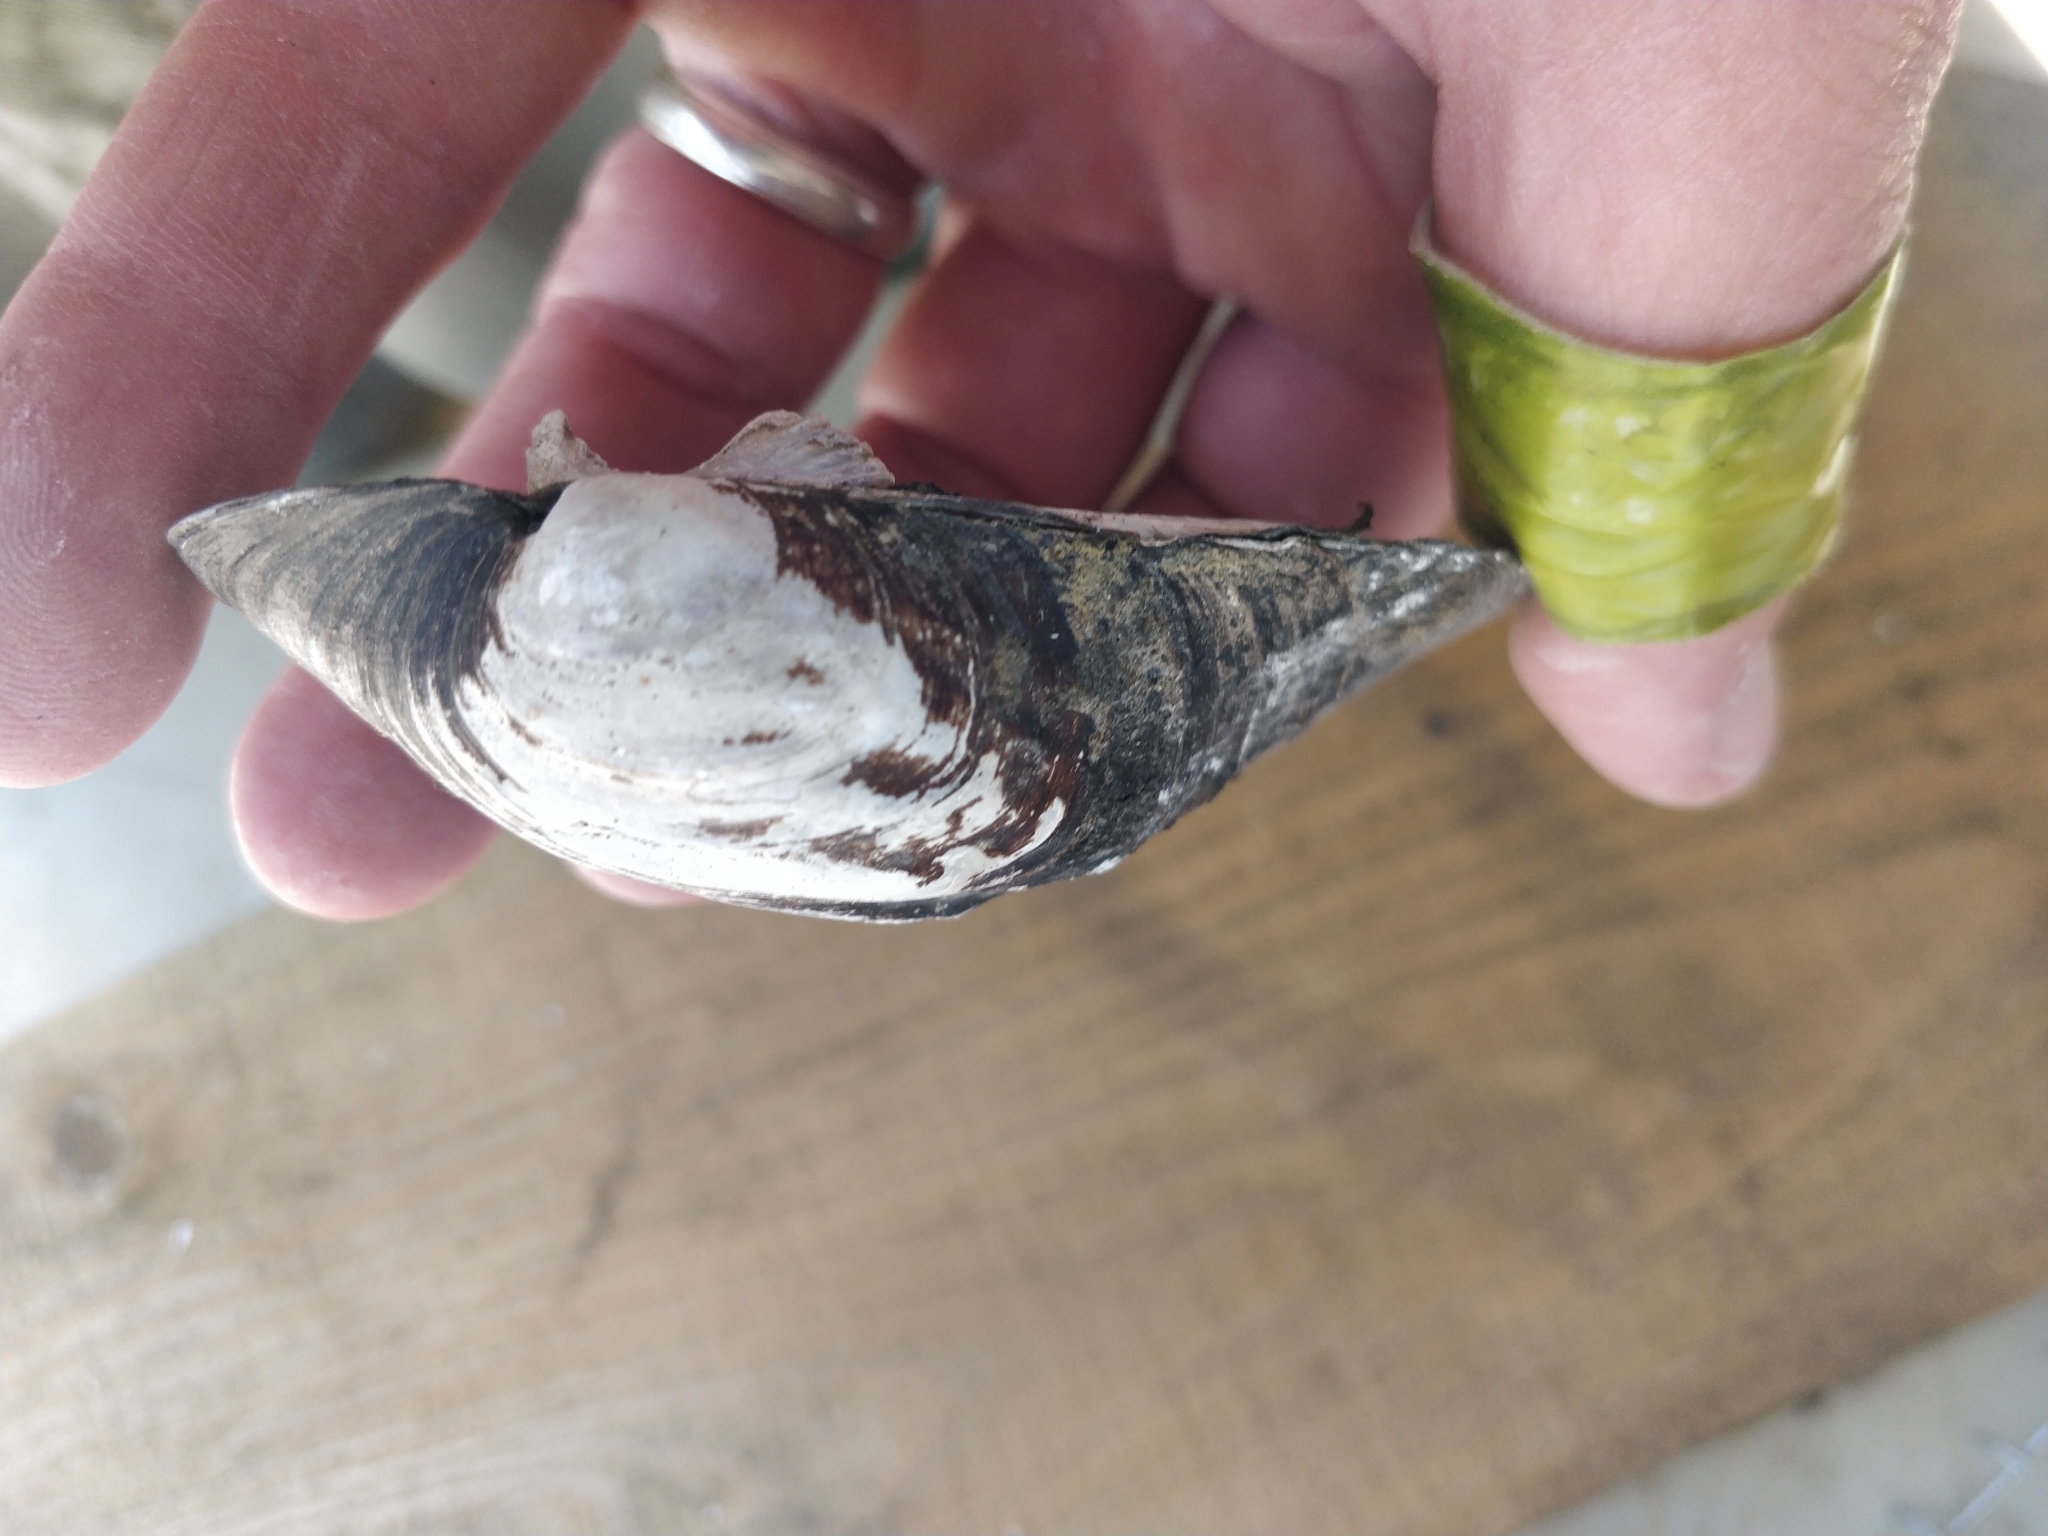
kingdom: Animalia
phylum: Mollusca
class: Bivalvia
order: Unionida
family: Unionidae
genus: Amblema
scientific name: Amblema plicata
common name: Threeridge
